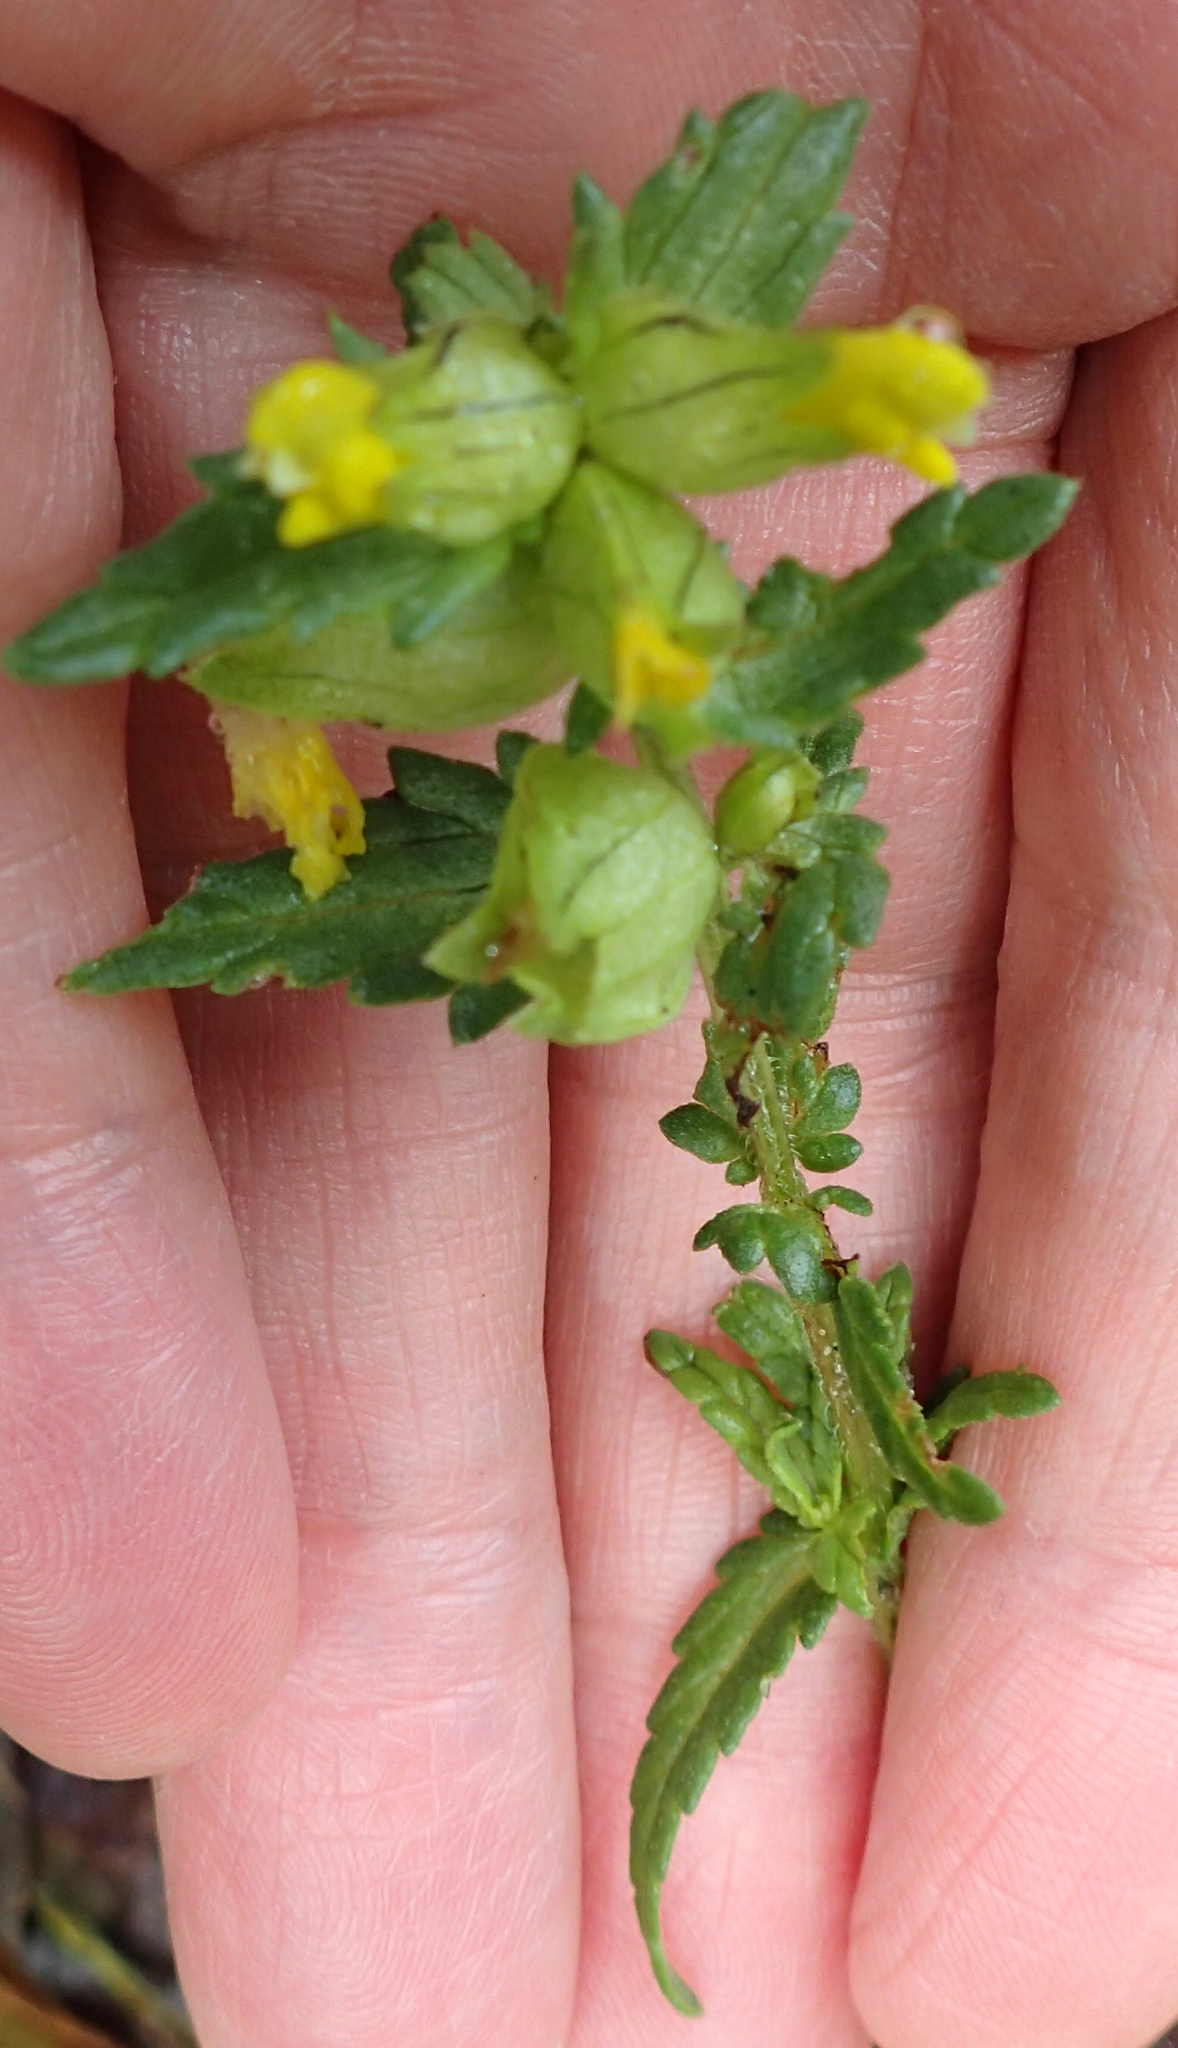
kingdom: Plantae
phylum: Tracheophyta
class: Magnoliopsida
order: Lamiales
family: Orobanchaceae
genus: Rhinanthus
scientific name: Rhinanthus minor
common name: Yellow-rattle
